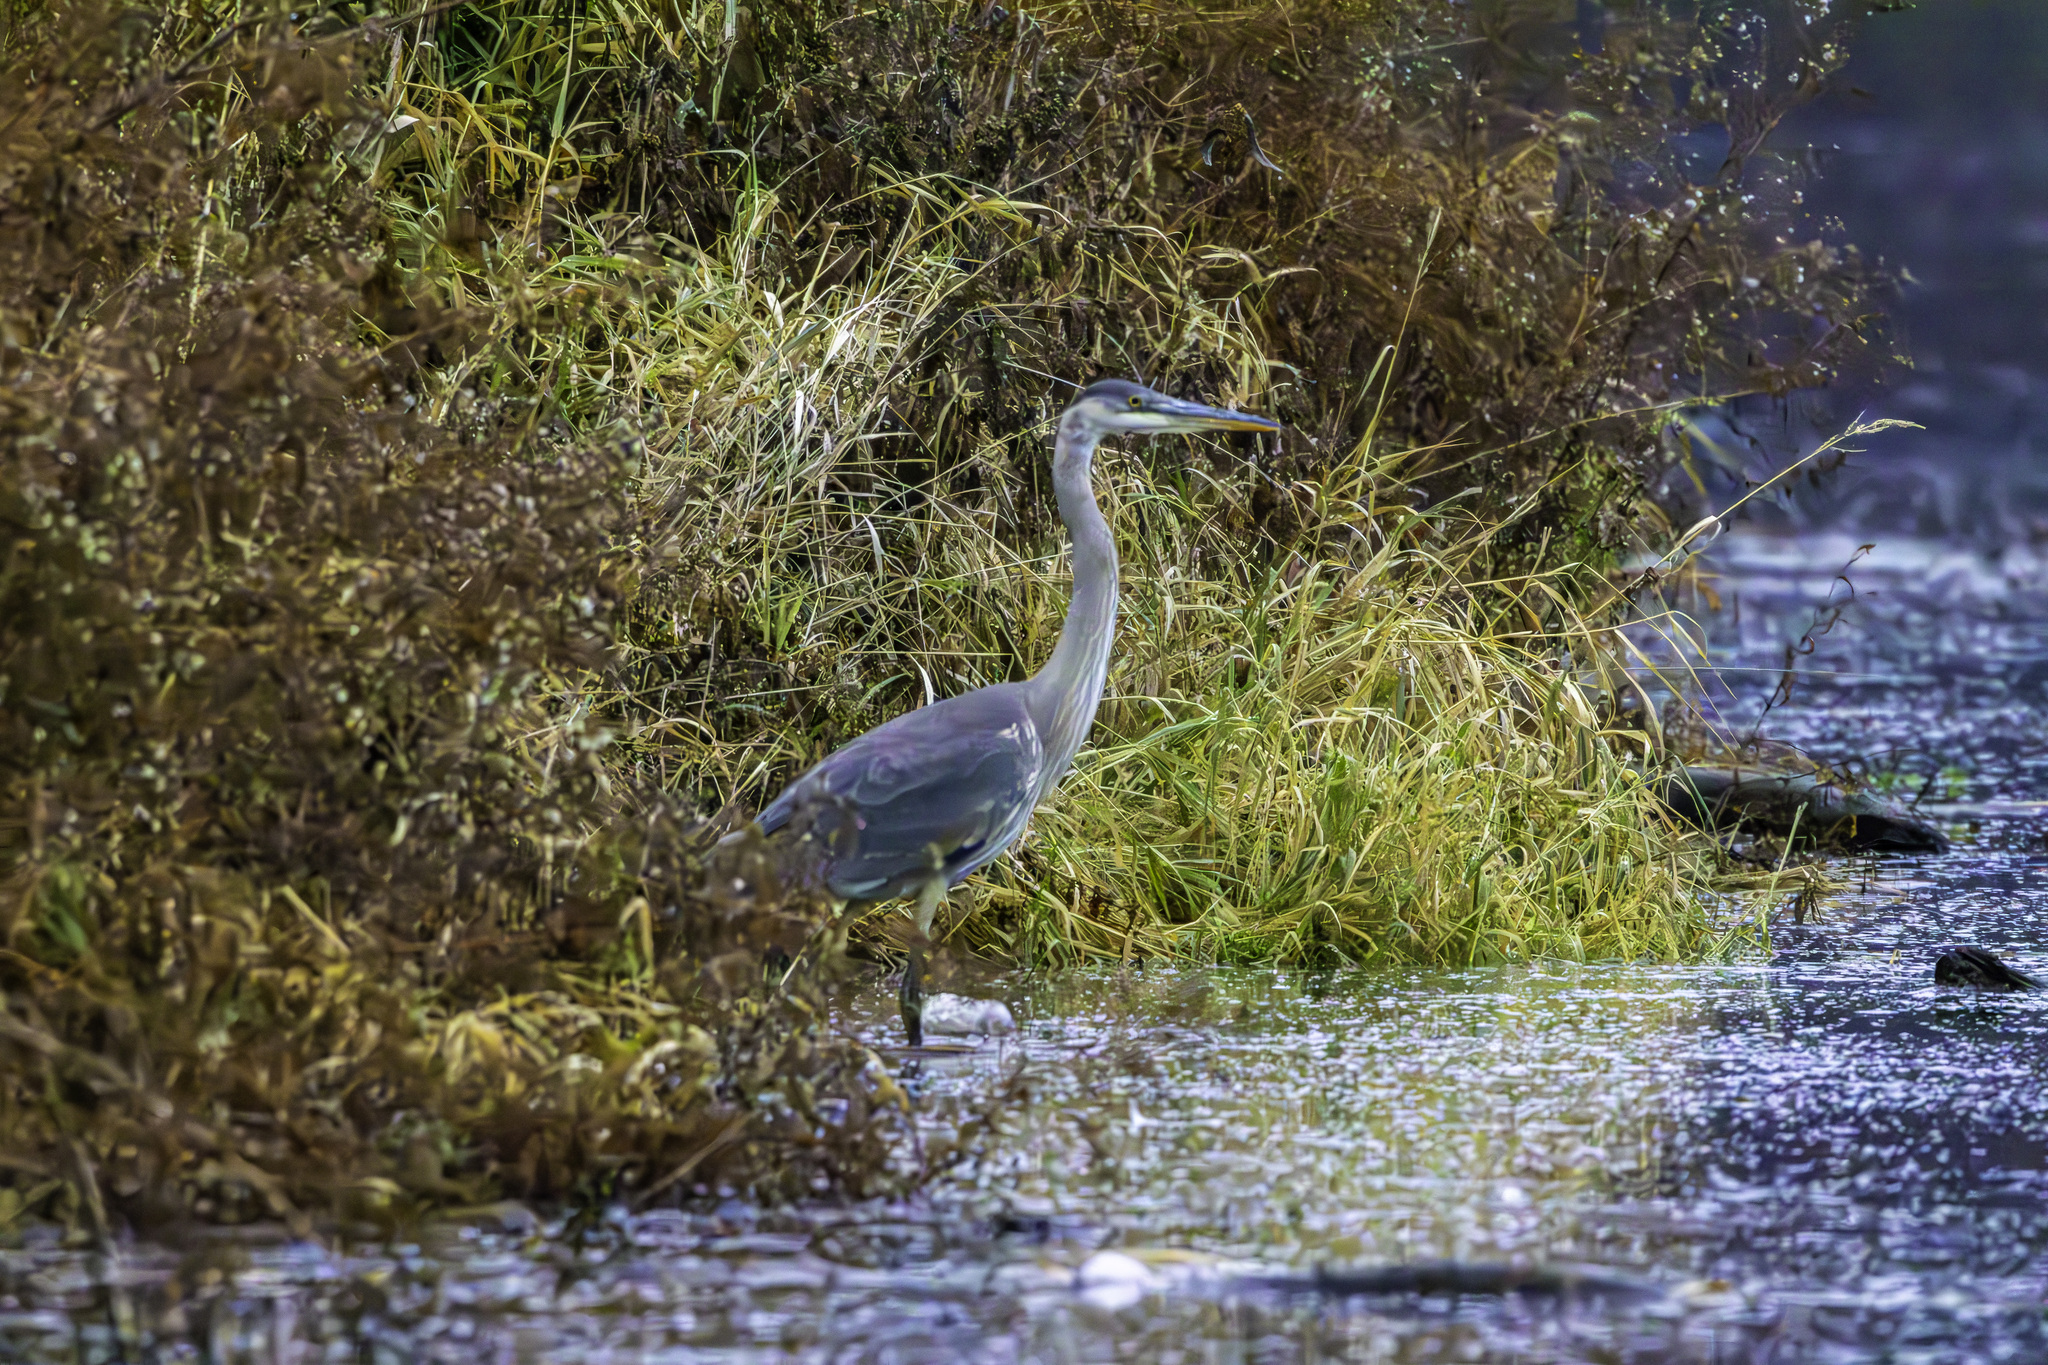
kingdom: Animalia
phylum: Chordata
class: Aves
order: Pelecaniformes
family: Ardeidae
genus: Ardea
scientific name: Ardea herodias
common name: Great blue heron
